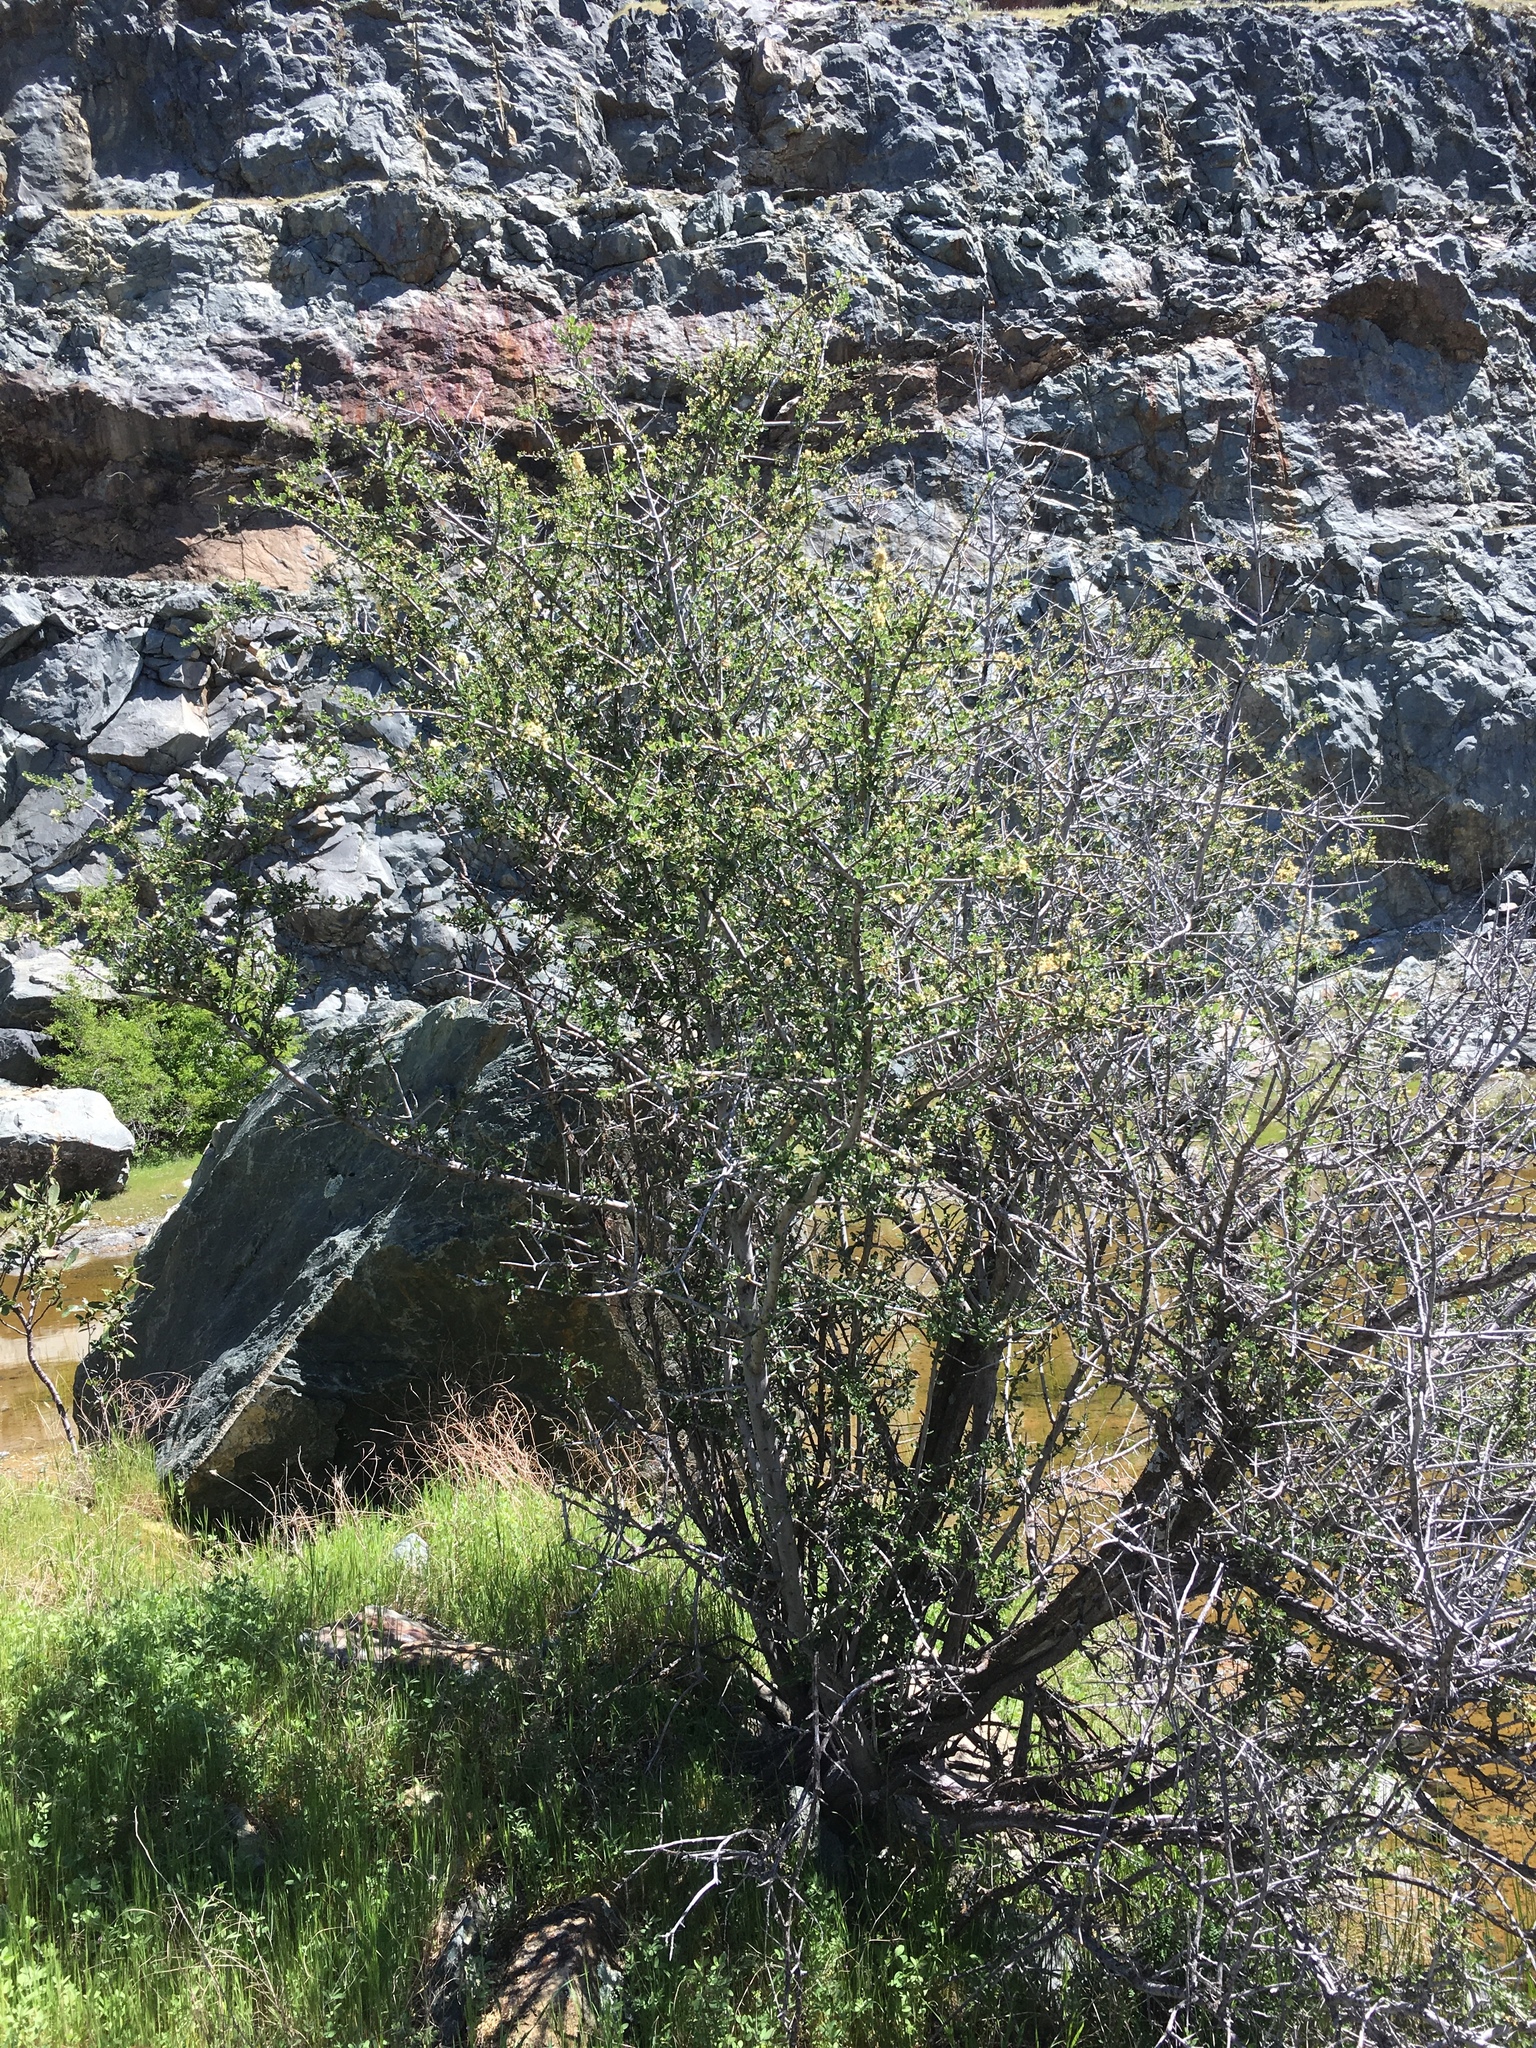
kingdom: Plantae
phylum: Tracheophyta
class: Magnoliopsida
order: Rosales
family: Rhamnaceae
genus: Ceanothus
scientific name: Ceanothus cuneatus
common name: Cuneate ceanothus
